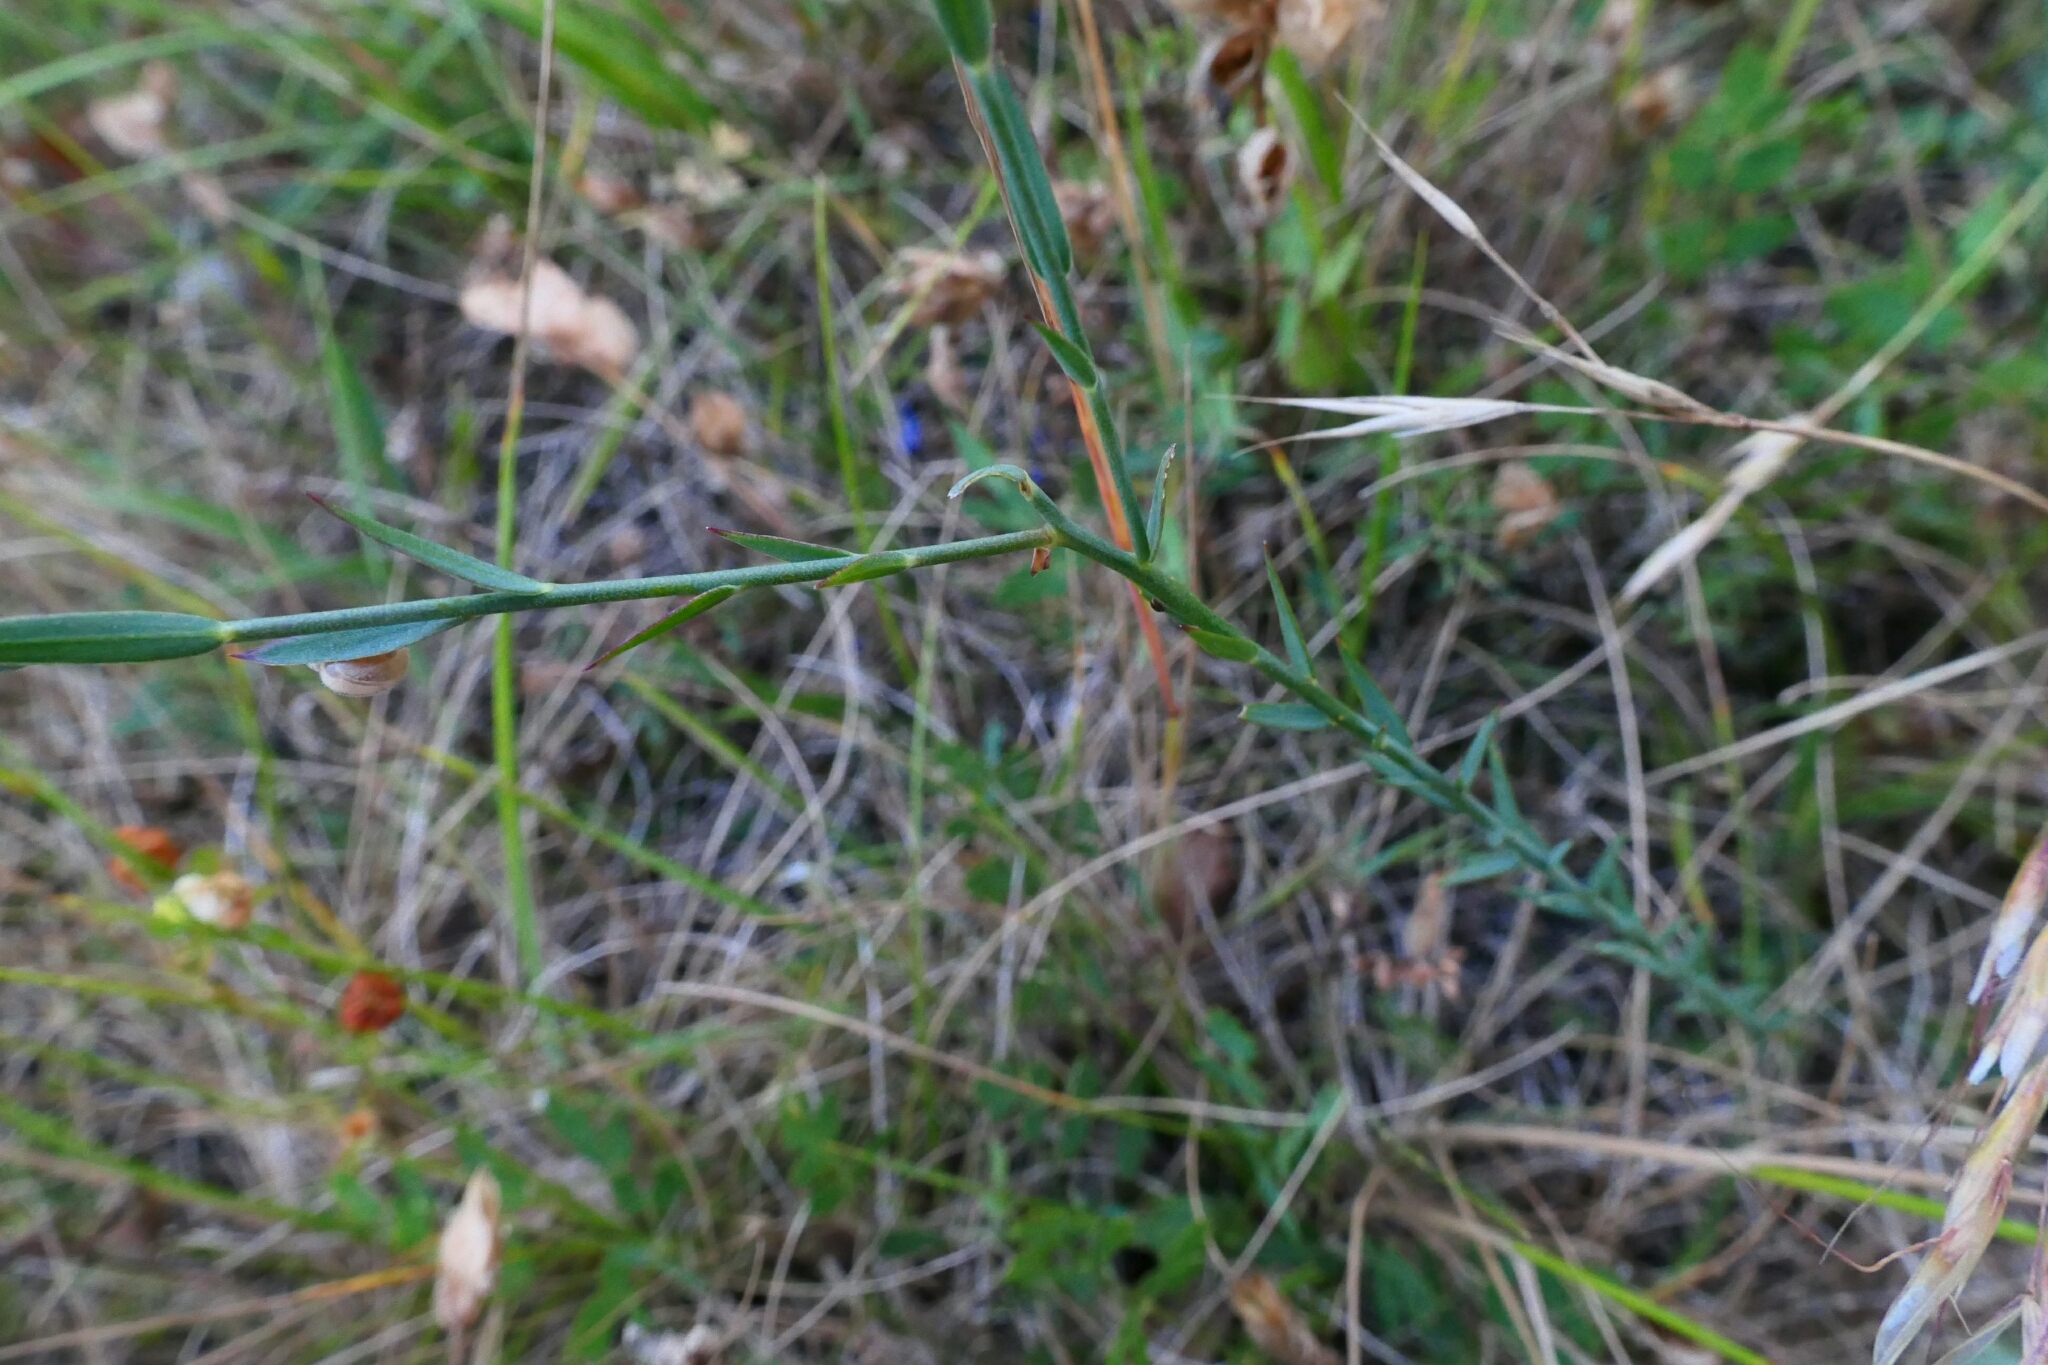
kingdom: Plantae
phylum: Tracheophyta
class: Magnoliopsida
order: Malpighiales
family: Linaceae
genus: Linum
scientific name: Linum narbonense
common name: Flax
